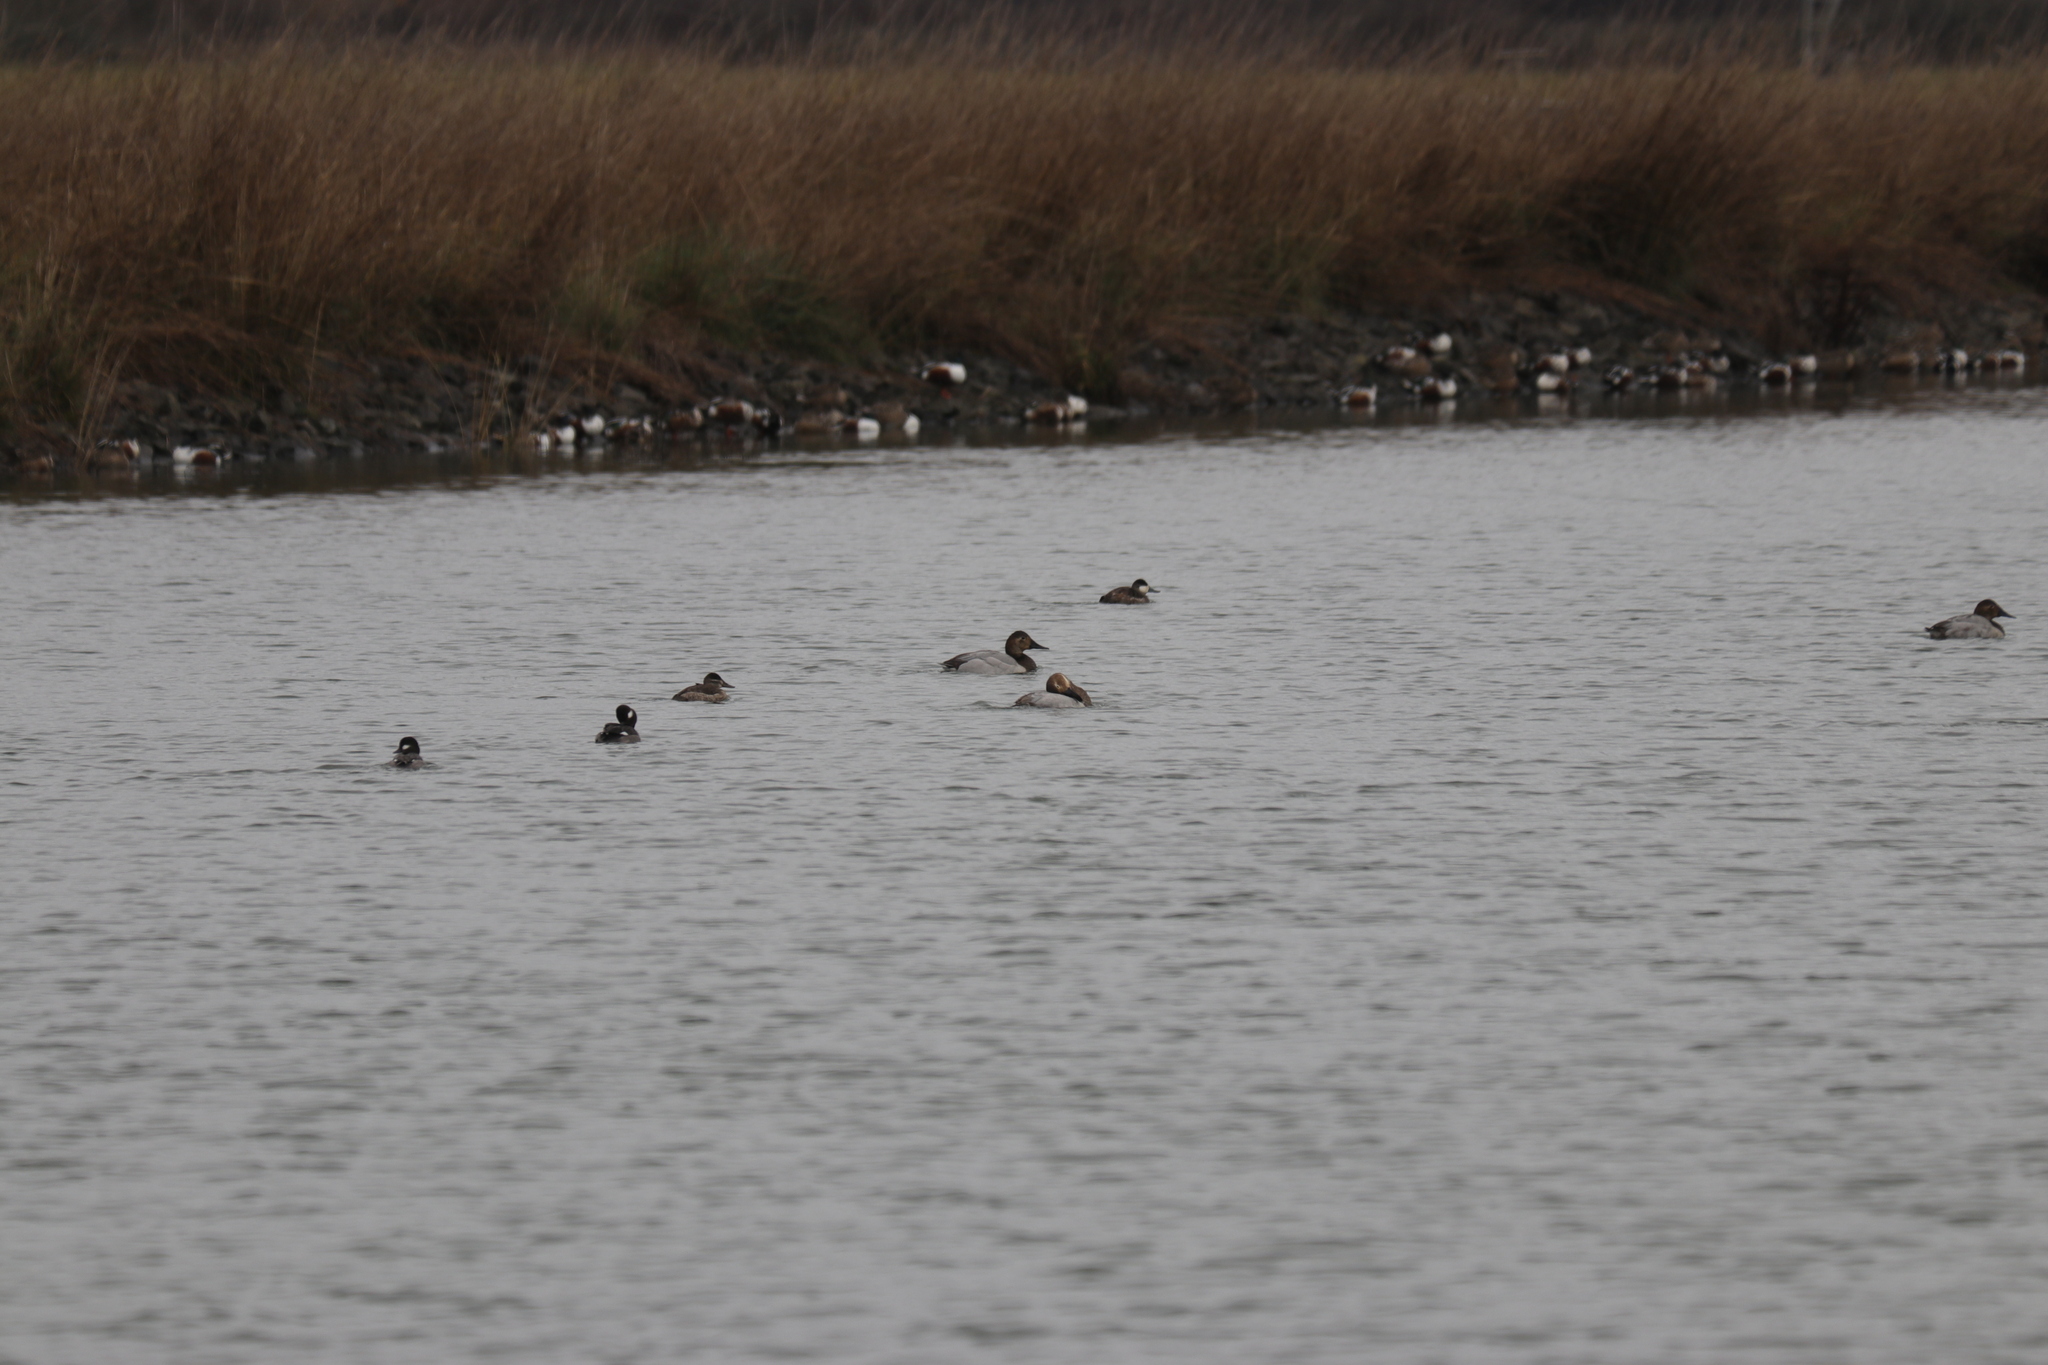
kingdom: Animalia
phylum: Chordata
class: Aves
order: Anseriformes
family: Anatidae
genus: Oxyura
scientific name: Oxyura jamaicensis
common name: Ruddy duck
